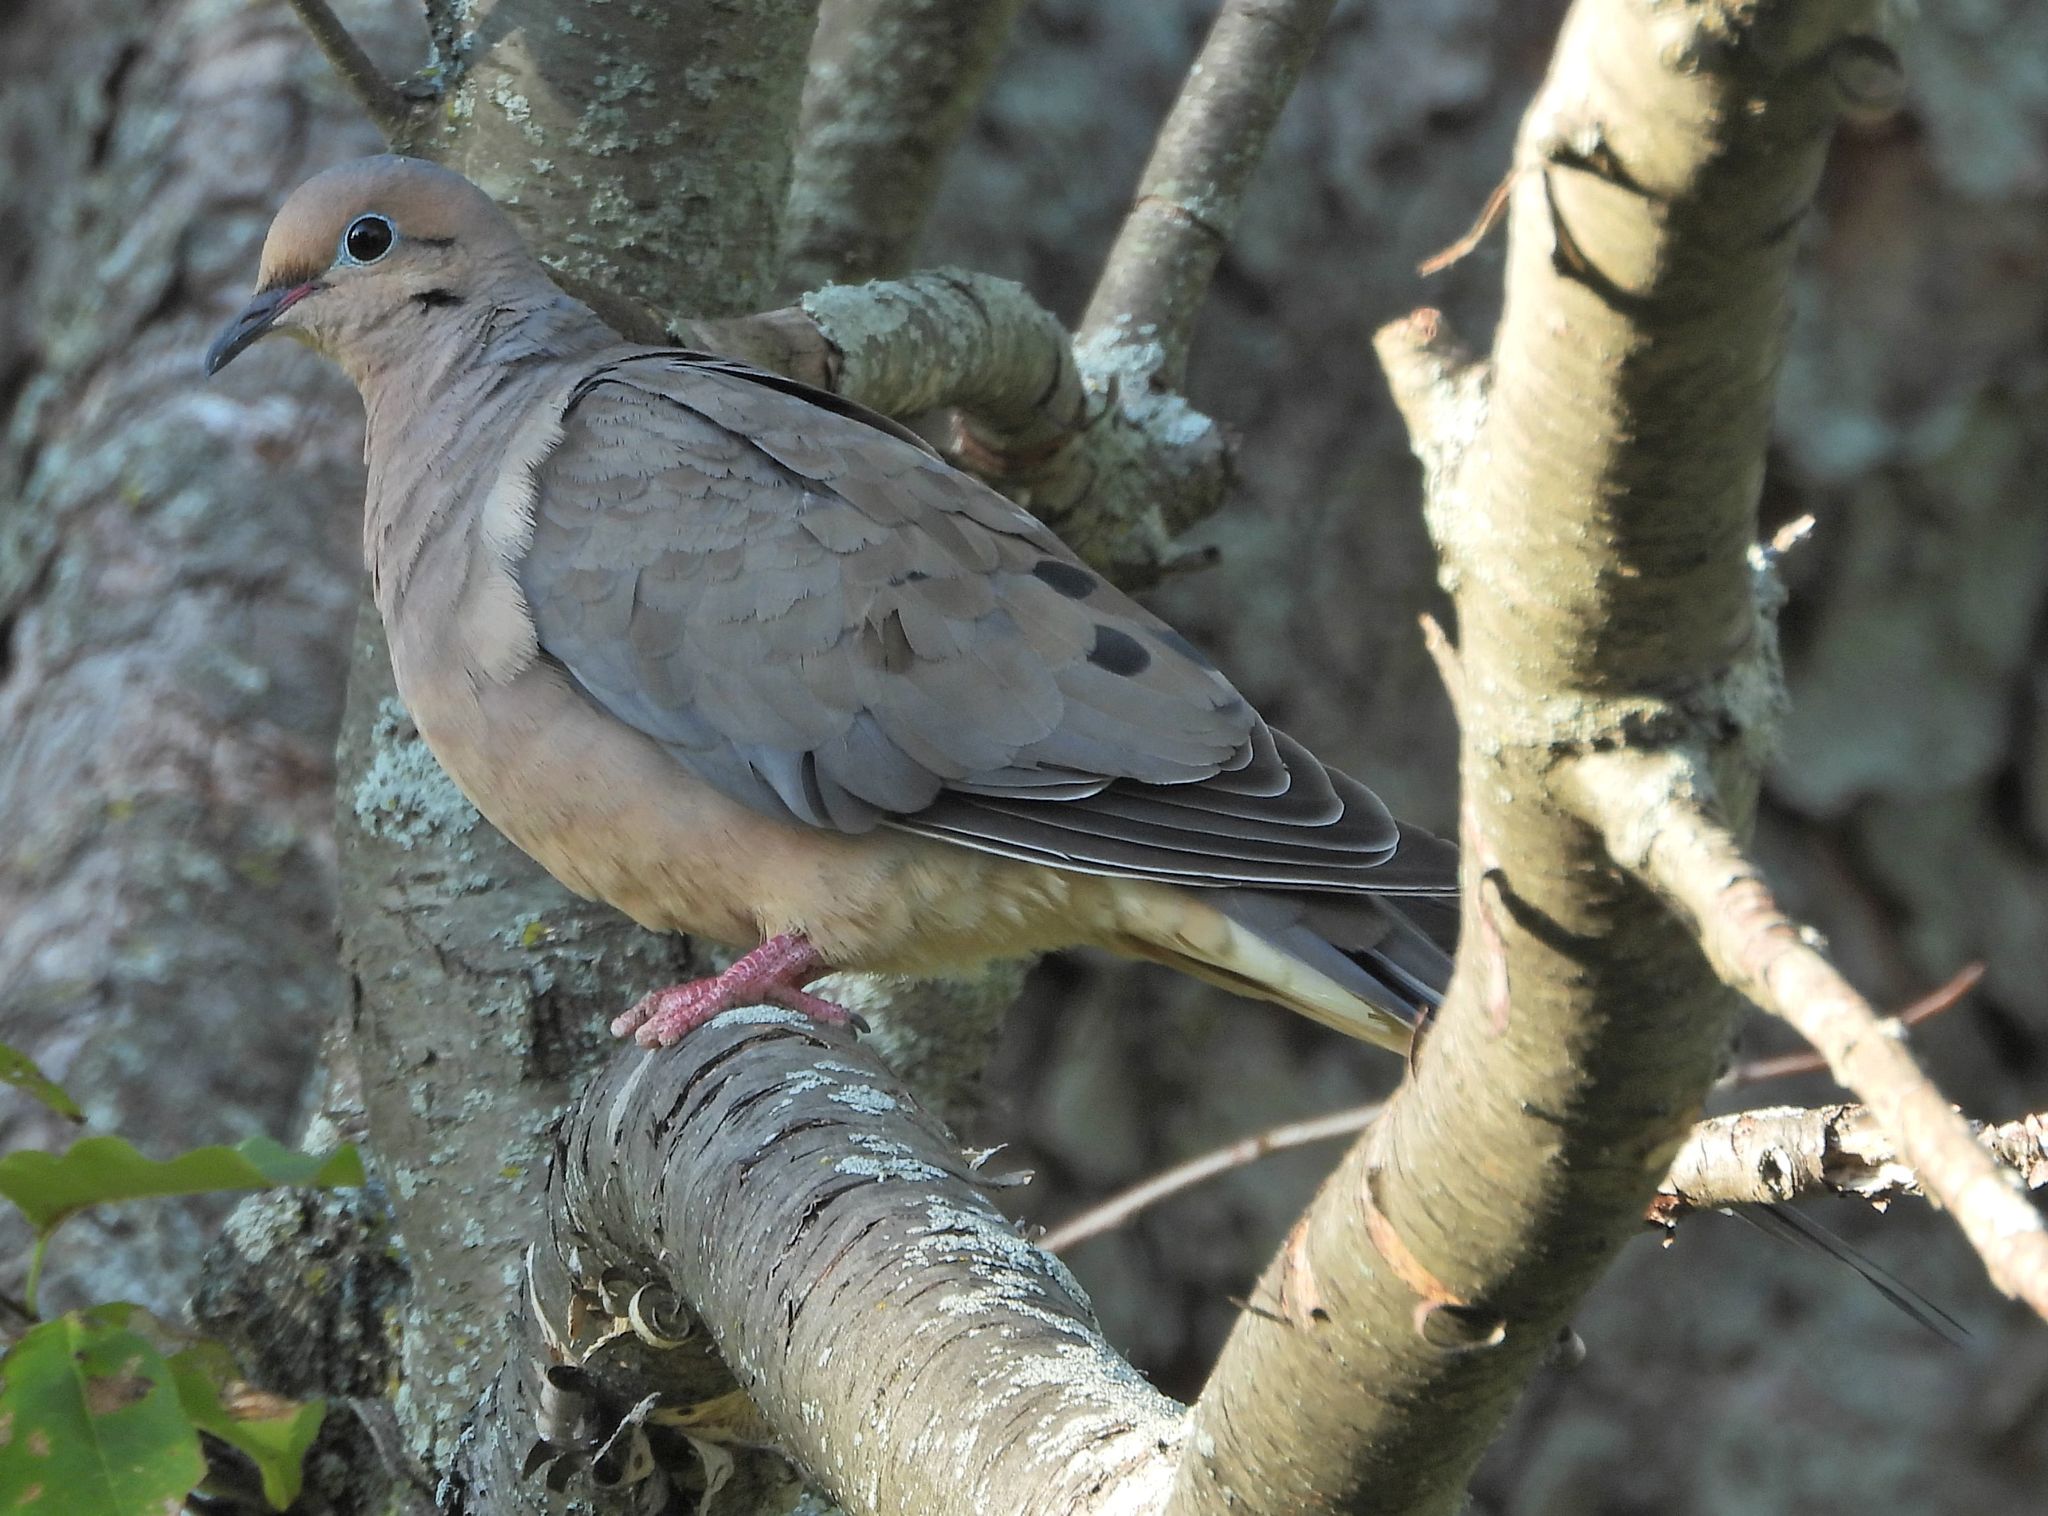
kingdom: Animalia
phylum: Chordata
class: Aves
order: Columbiformes
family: Columbidae
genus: Zenaida
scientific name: Zenaida macroura
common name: Mourning dove
